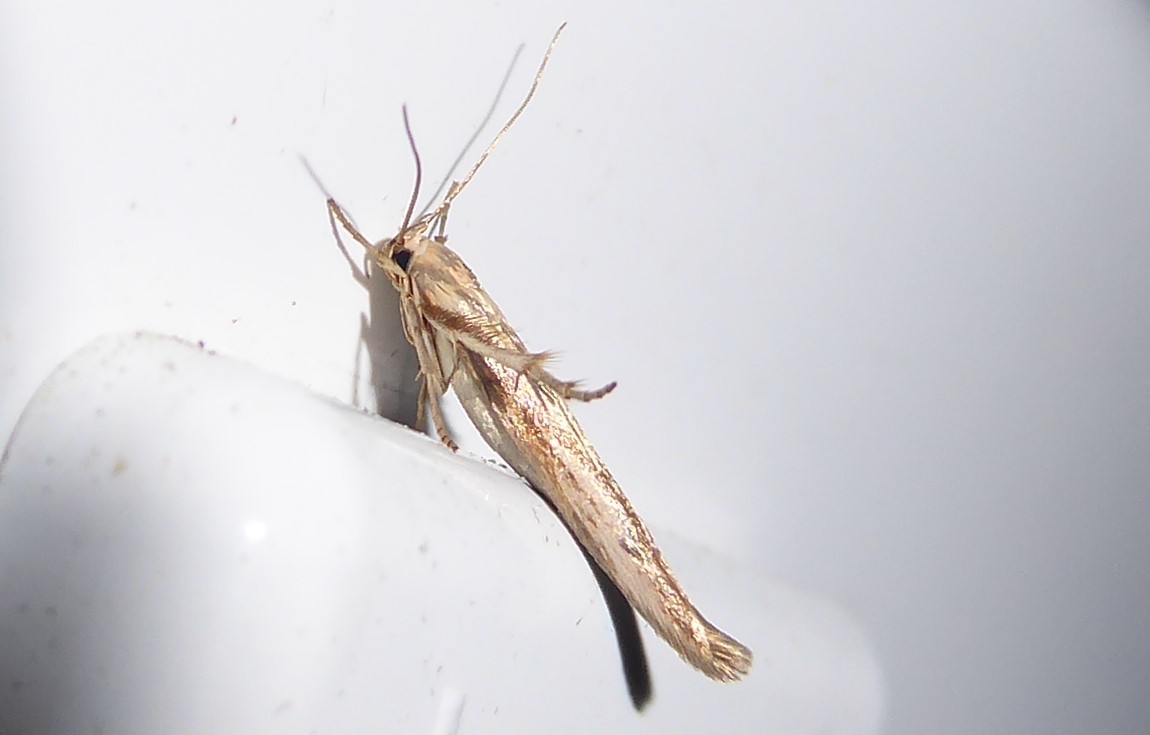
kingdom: Animalia
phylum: Arthropoda
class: Insecta
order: Lepidoptera
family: Stathmopodidae
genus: Stathmopoda
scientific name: Stathmopoda aposema
